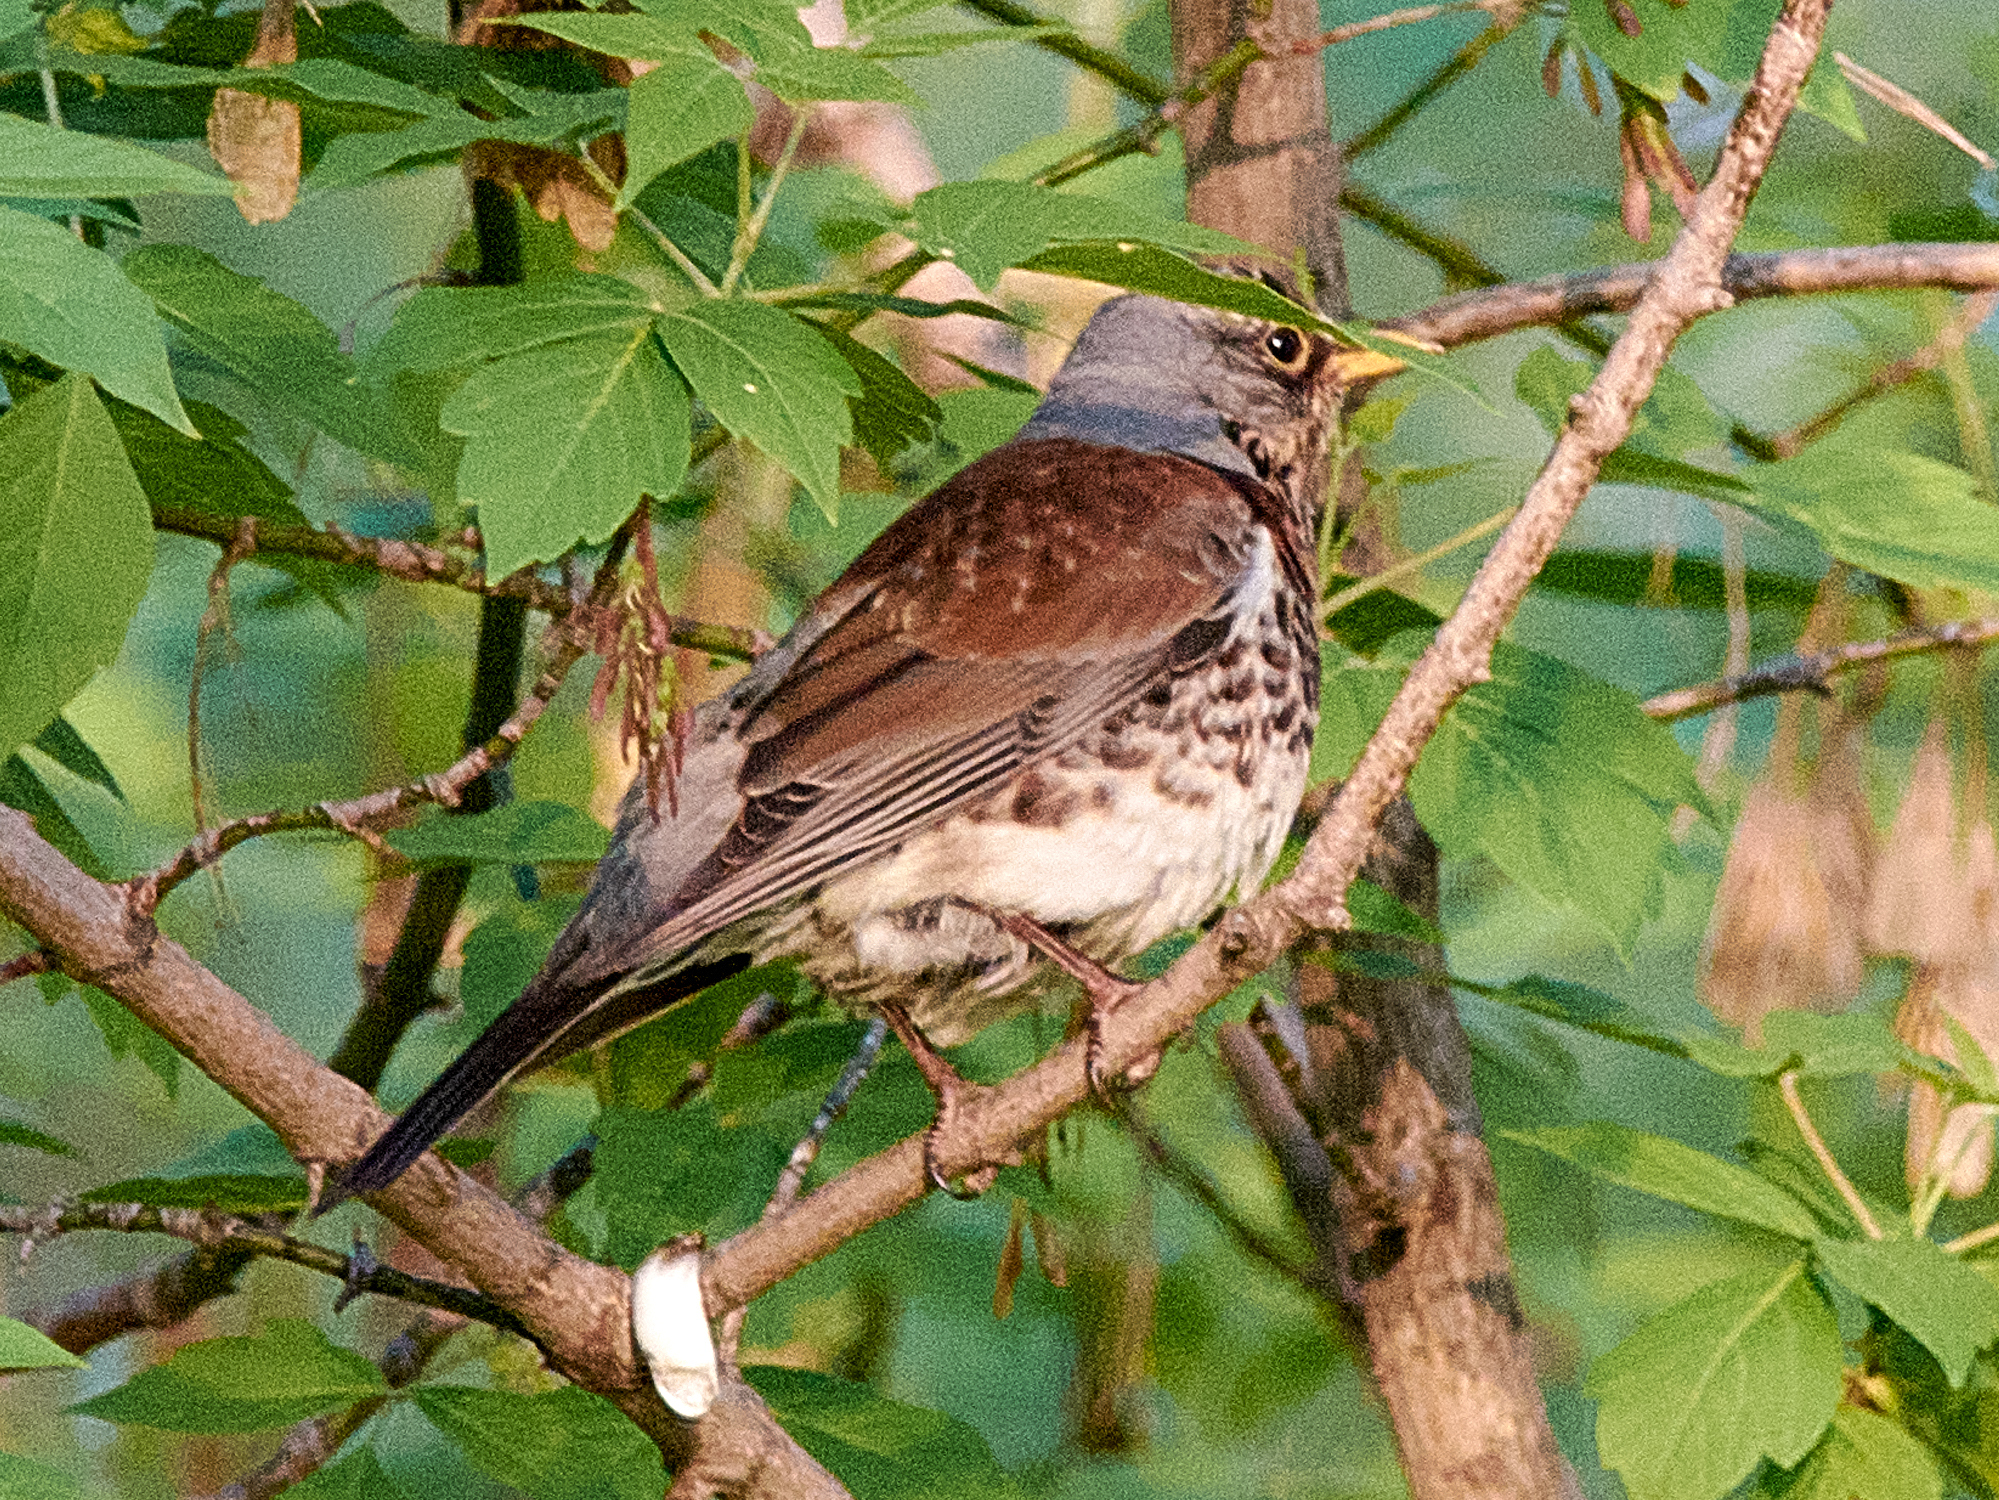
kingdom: Animalia
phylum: Chordata
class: Aves
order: Passeriformes
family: Turdidae
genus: Turdus
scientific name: Turdus pilaris
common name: Fieldfare
